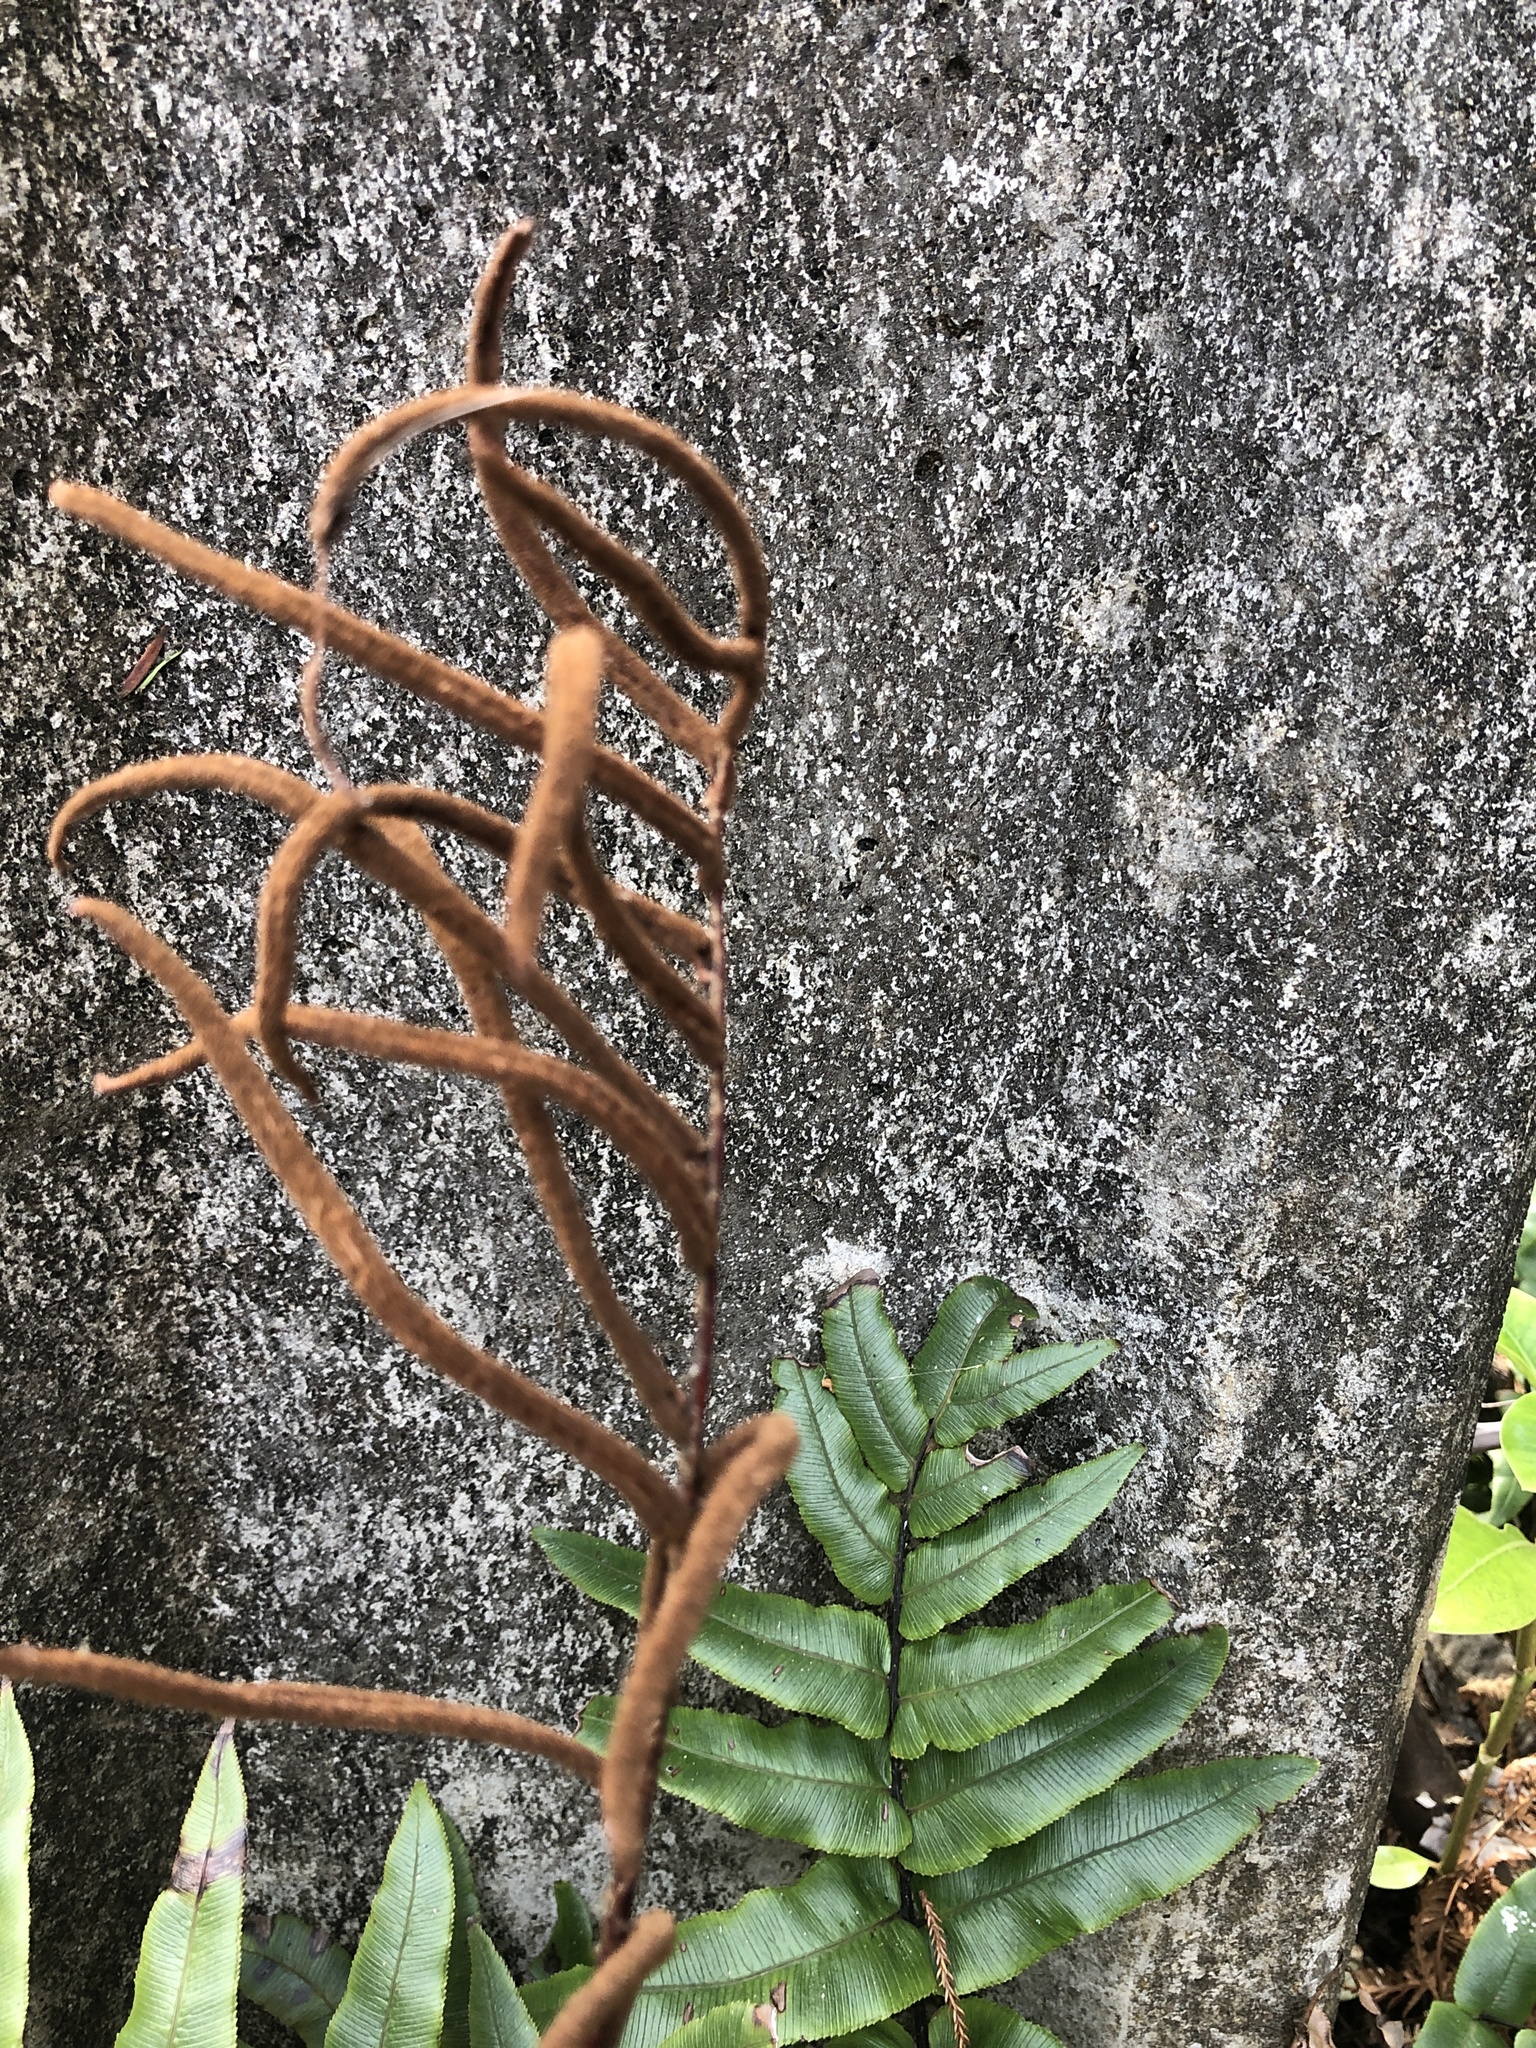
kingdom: Plantae
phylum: Tracheophyta
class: Polypodiopsida
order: Polypodiales
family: Blechnaceae
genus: Parablechnum
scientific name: Parablechnum procerum
